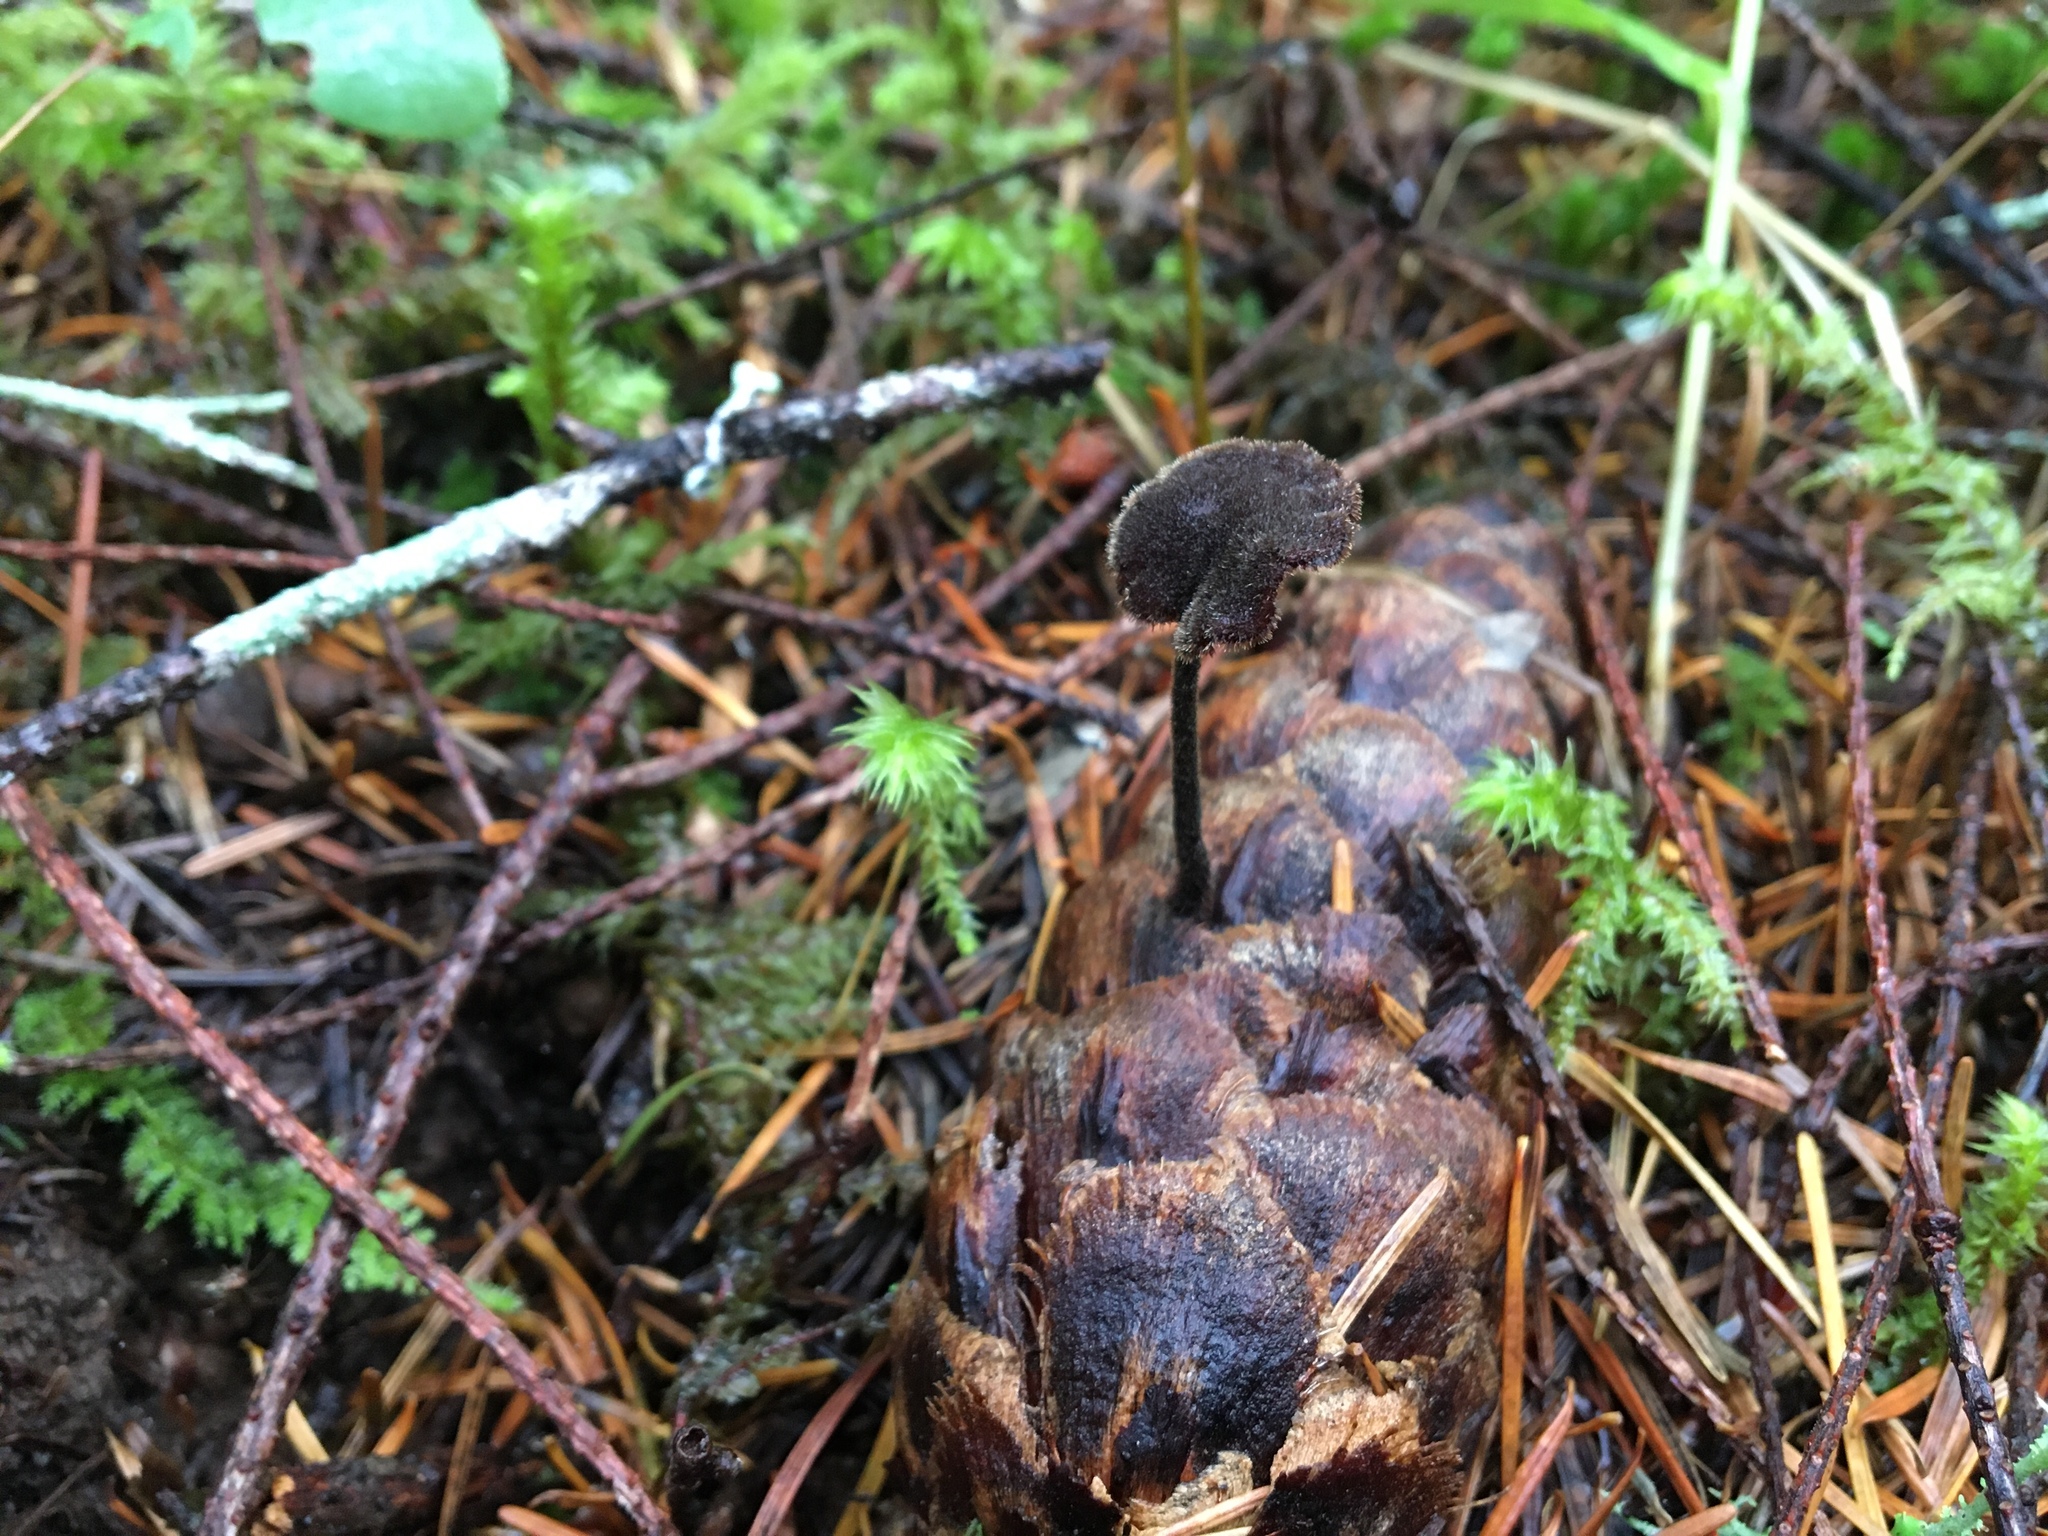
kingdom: Fungi
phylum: Basidiomycota
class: Agaricomycetes
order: Russulales
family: Auriscalpiaceae
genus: Auriscalpium
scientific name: Auriscalpium vulgare
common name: Earpick fungus
